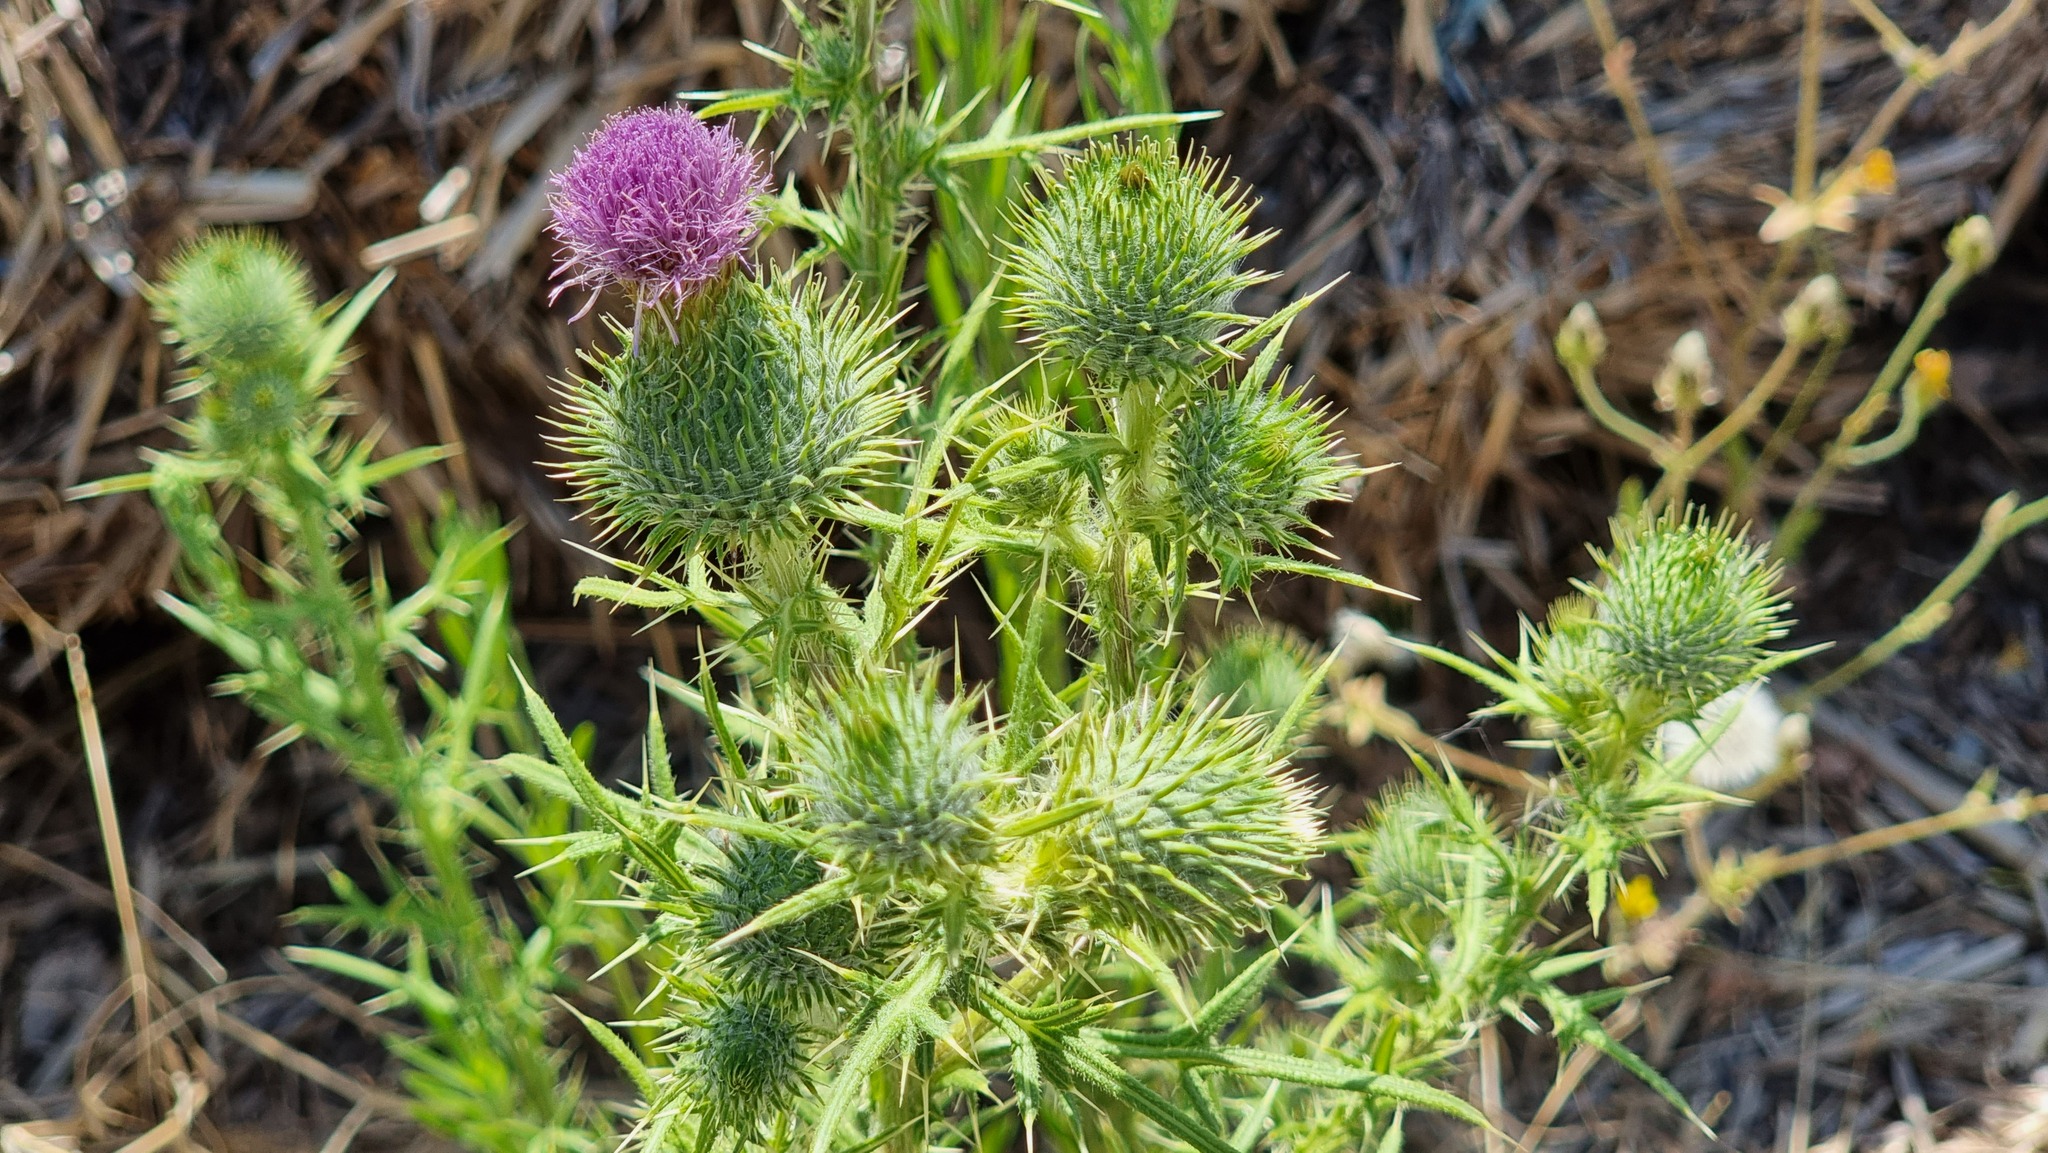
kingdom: Plantae
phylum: Tracheophyta
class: Magnoliopsida
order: Asterales
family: Asteraceae
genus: Cirsium
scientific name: Cirsium vulgare
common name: Bull thistle
